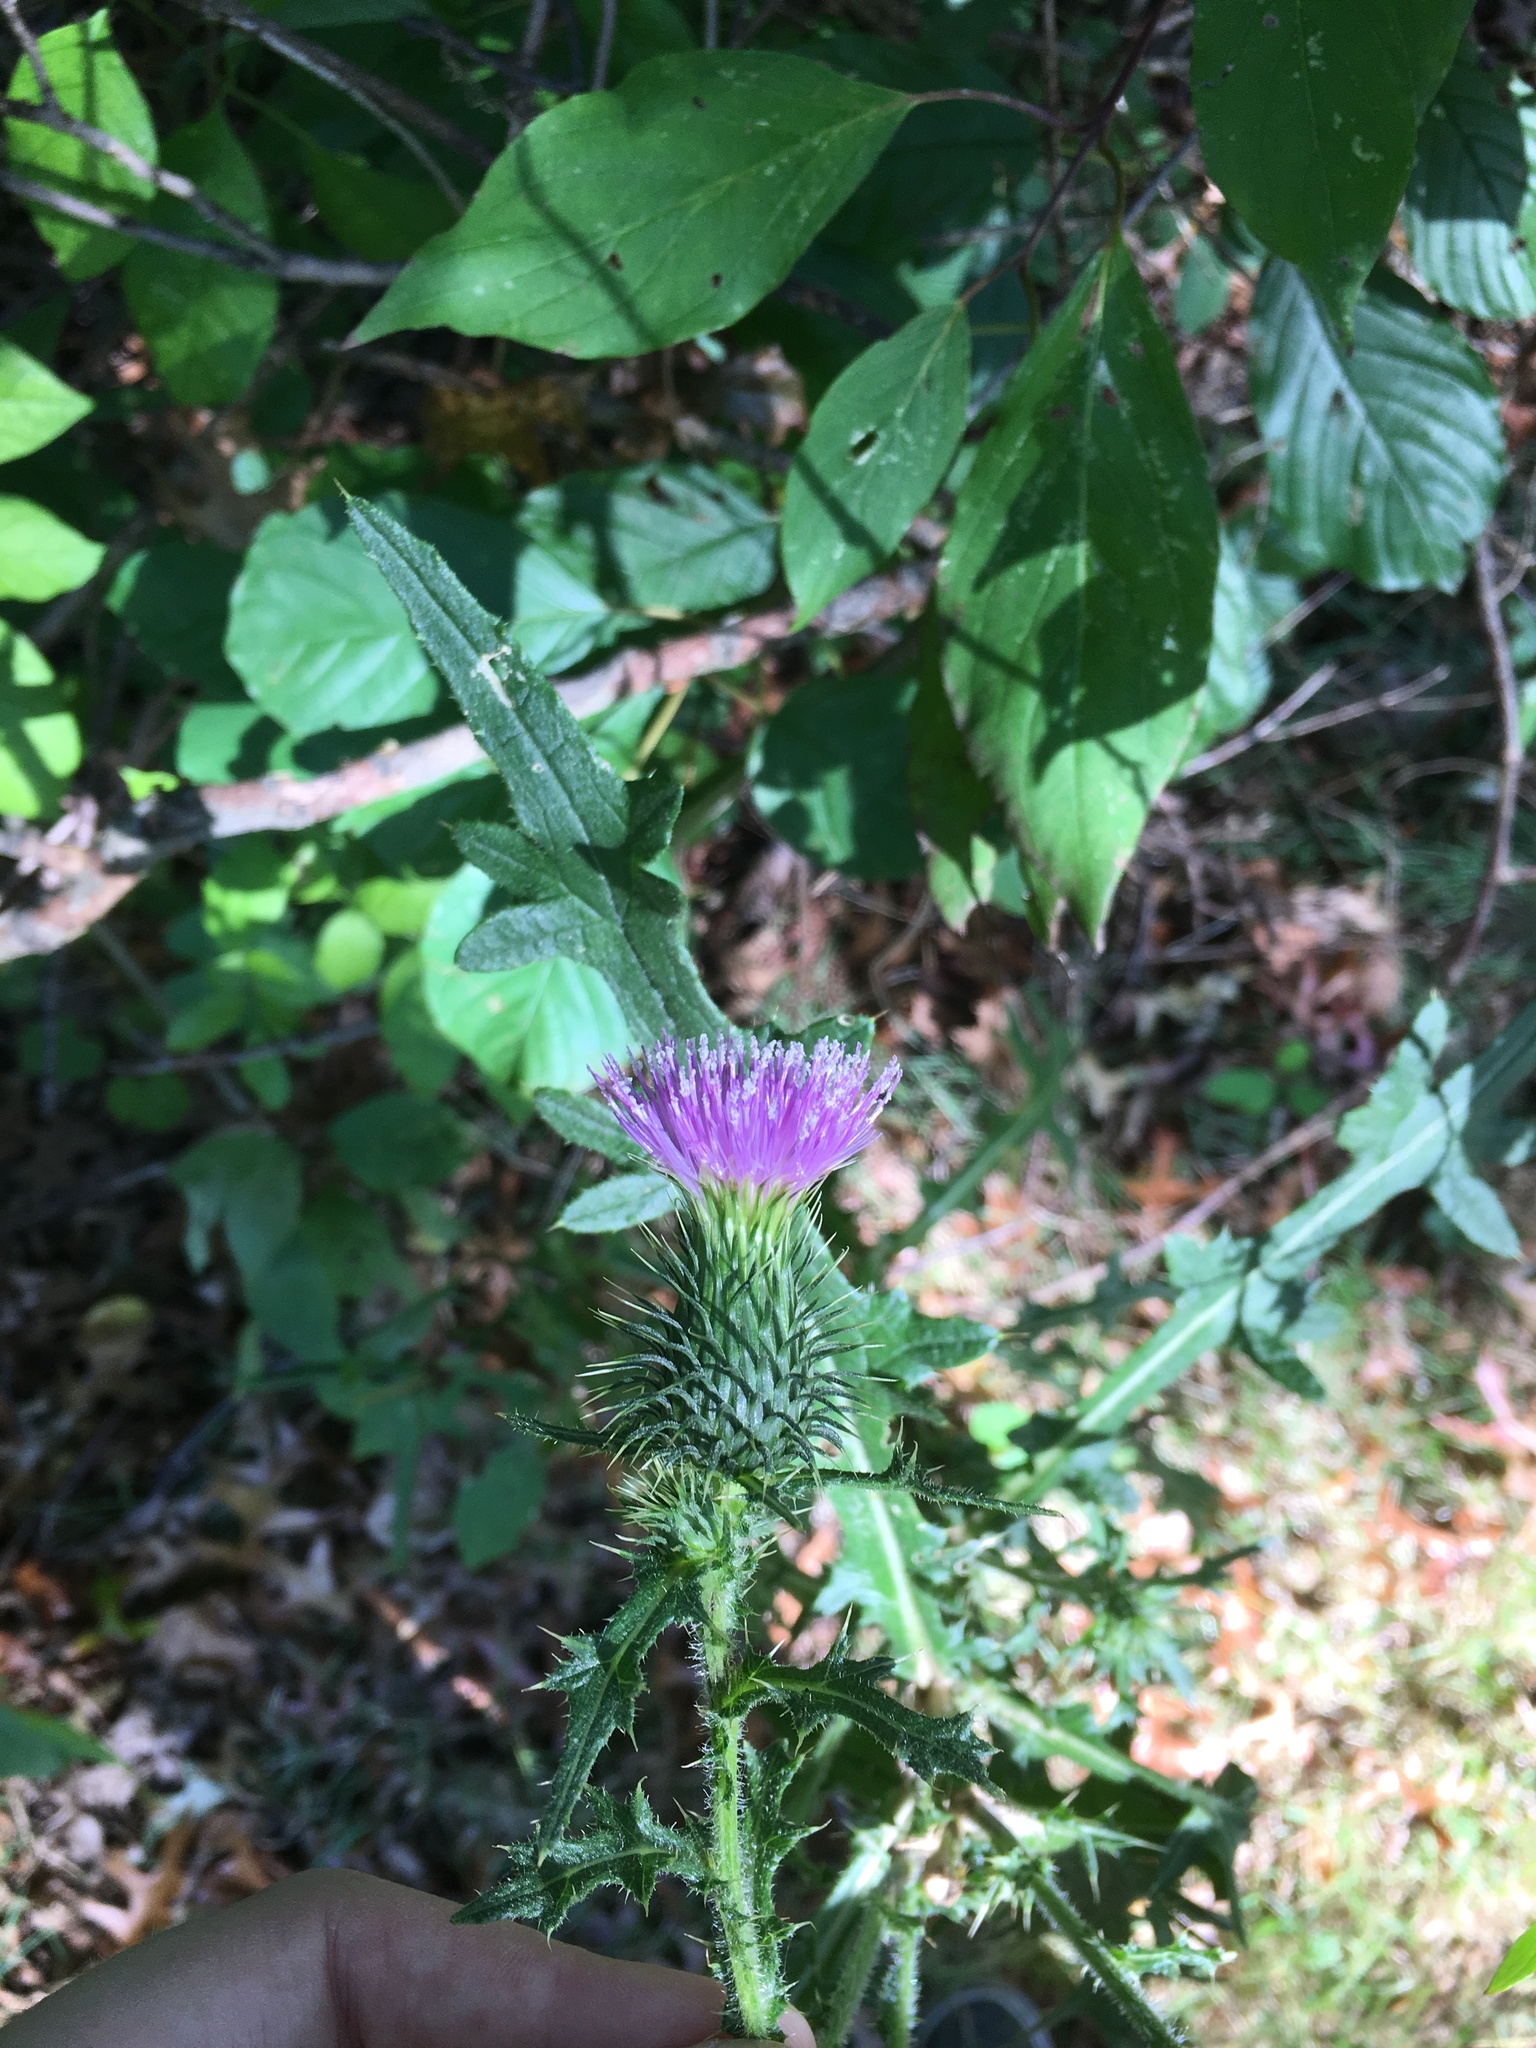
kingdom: Plantae
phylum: Tracheophyta
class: Magnoliopsida
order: Asterales
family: Asteraceae
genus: Cirsium
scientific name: Cirsium vulgare
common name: Bull thistle
